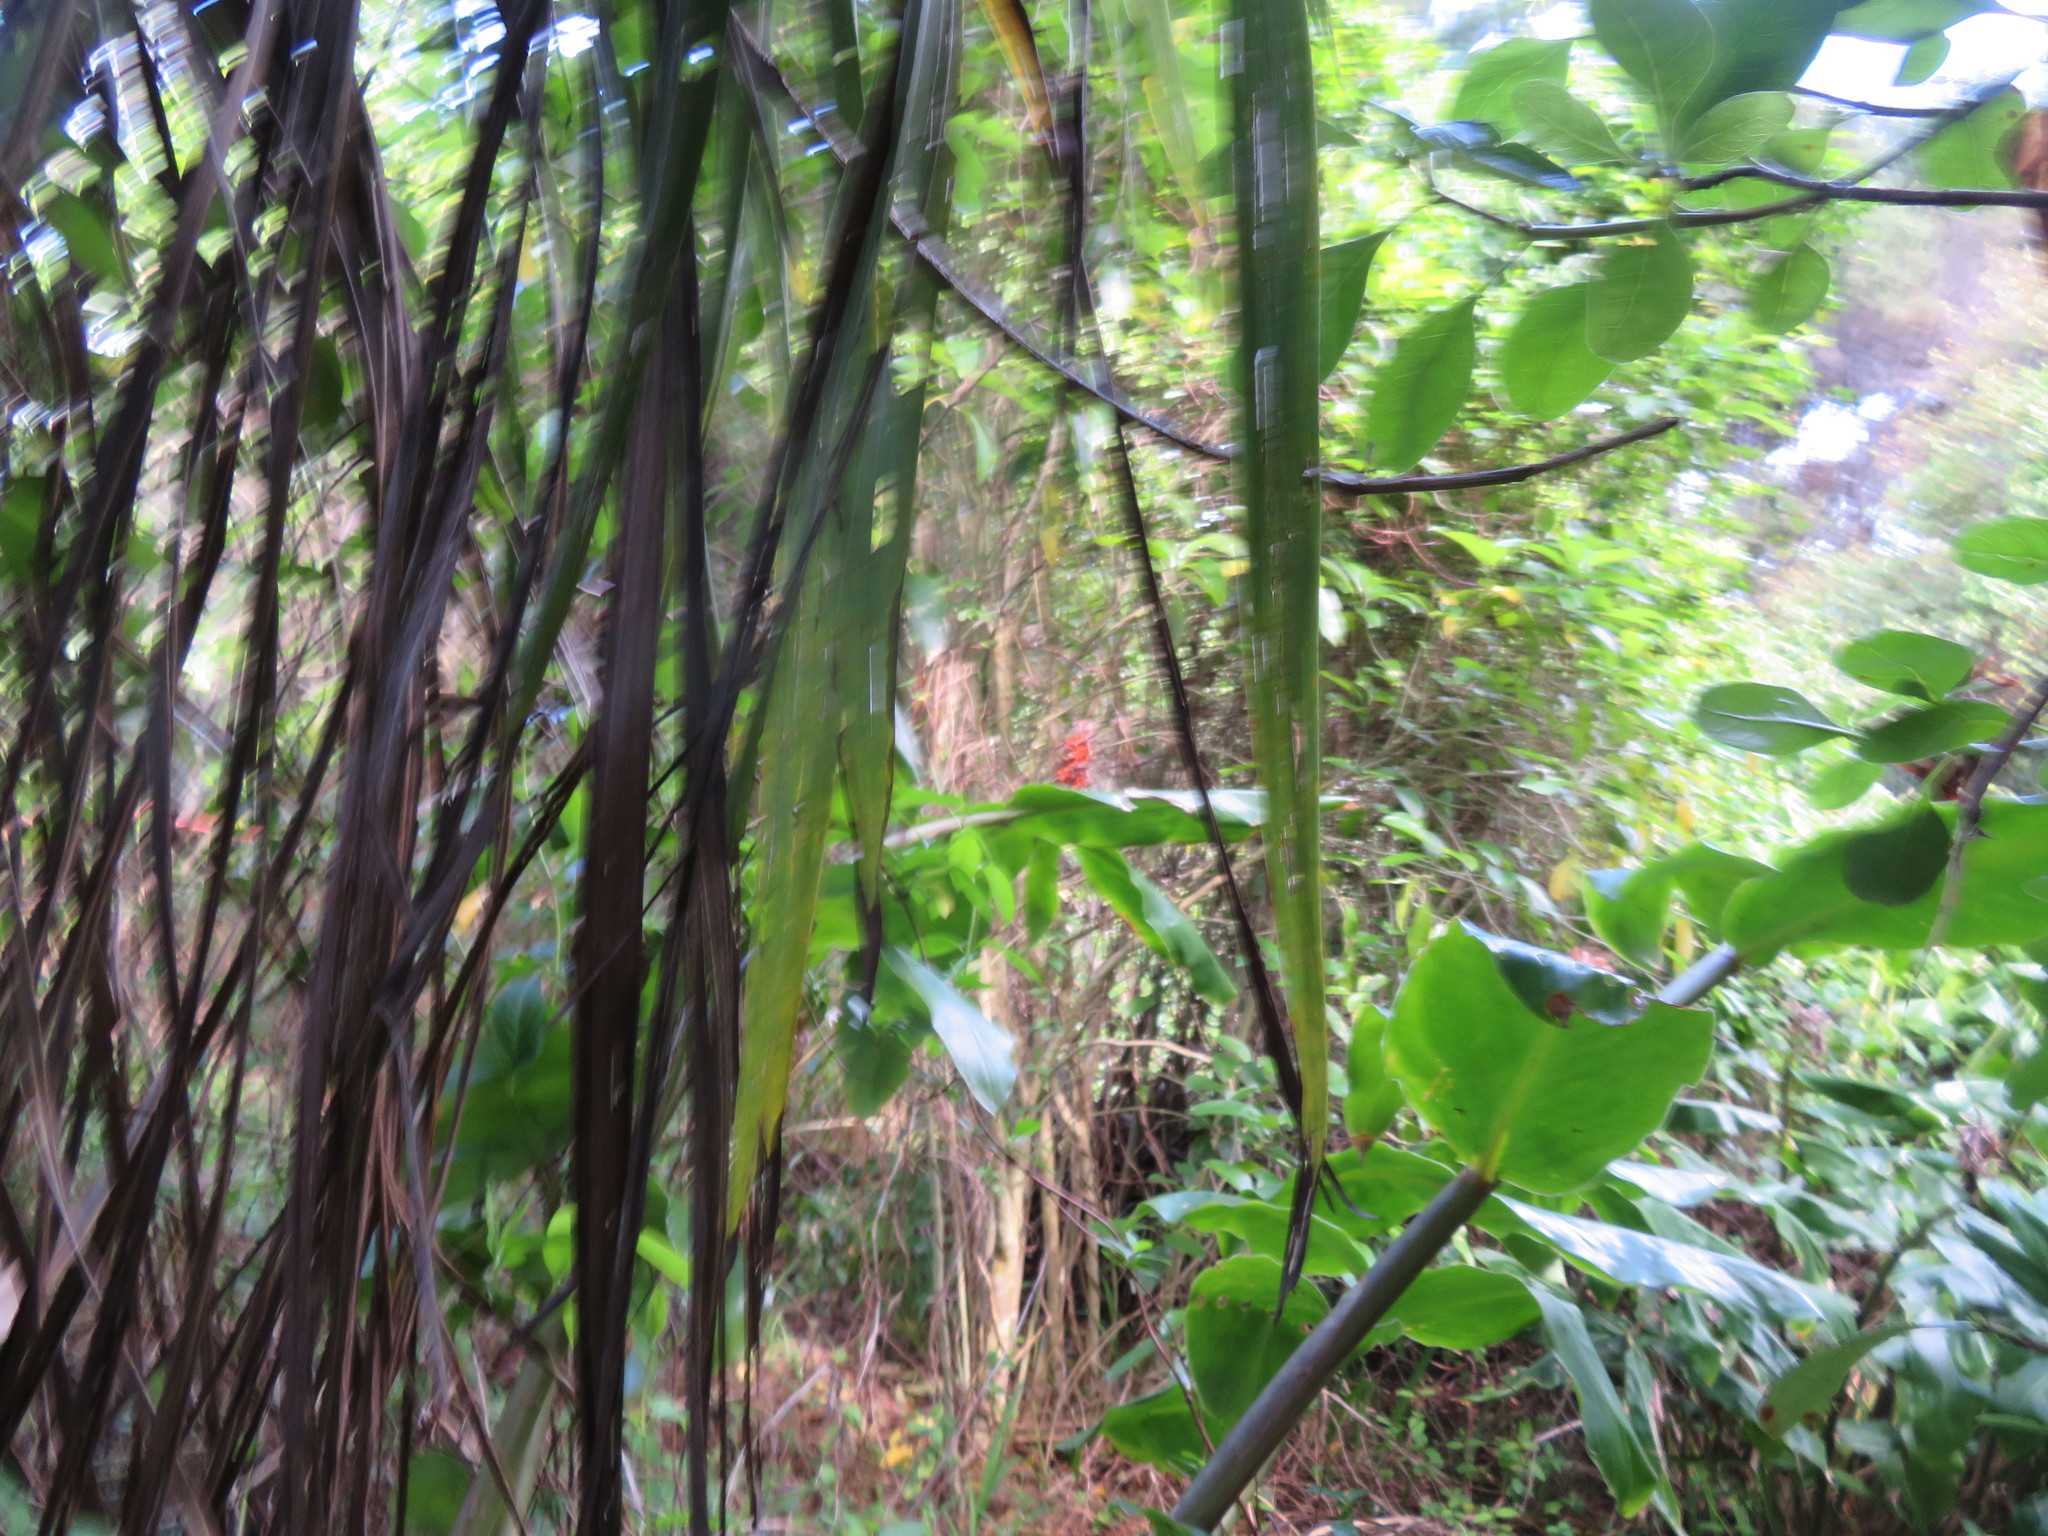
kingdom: Plantae
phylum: Tracheophyta
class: Liliopsida
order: Zingiberales
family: Zingiberaceae
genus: Hedychium
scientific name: Hedychium gardnerianum
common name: Himalayan ginger
